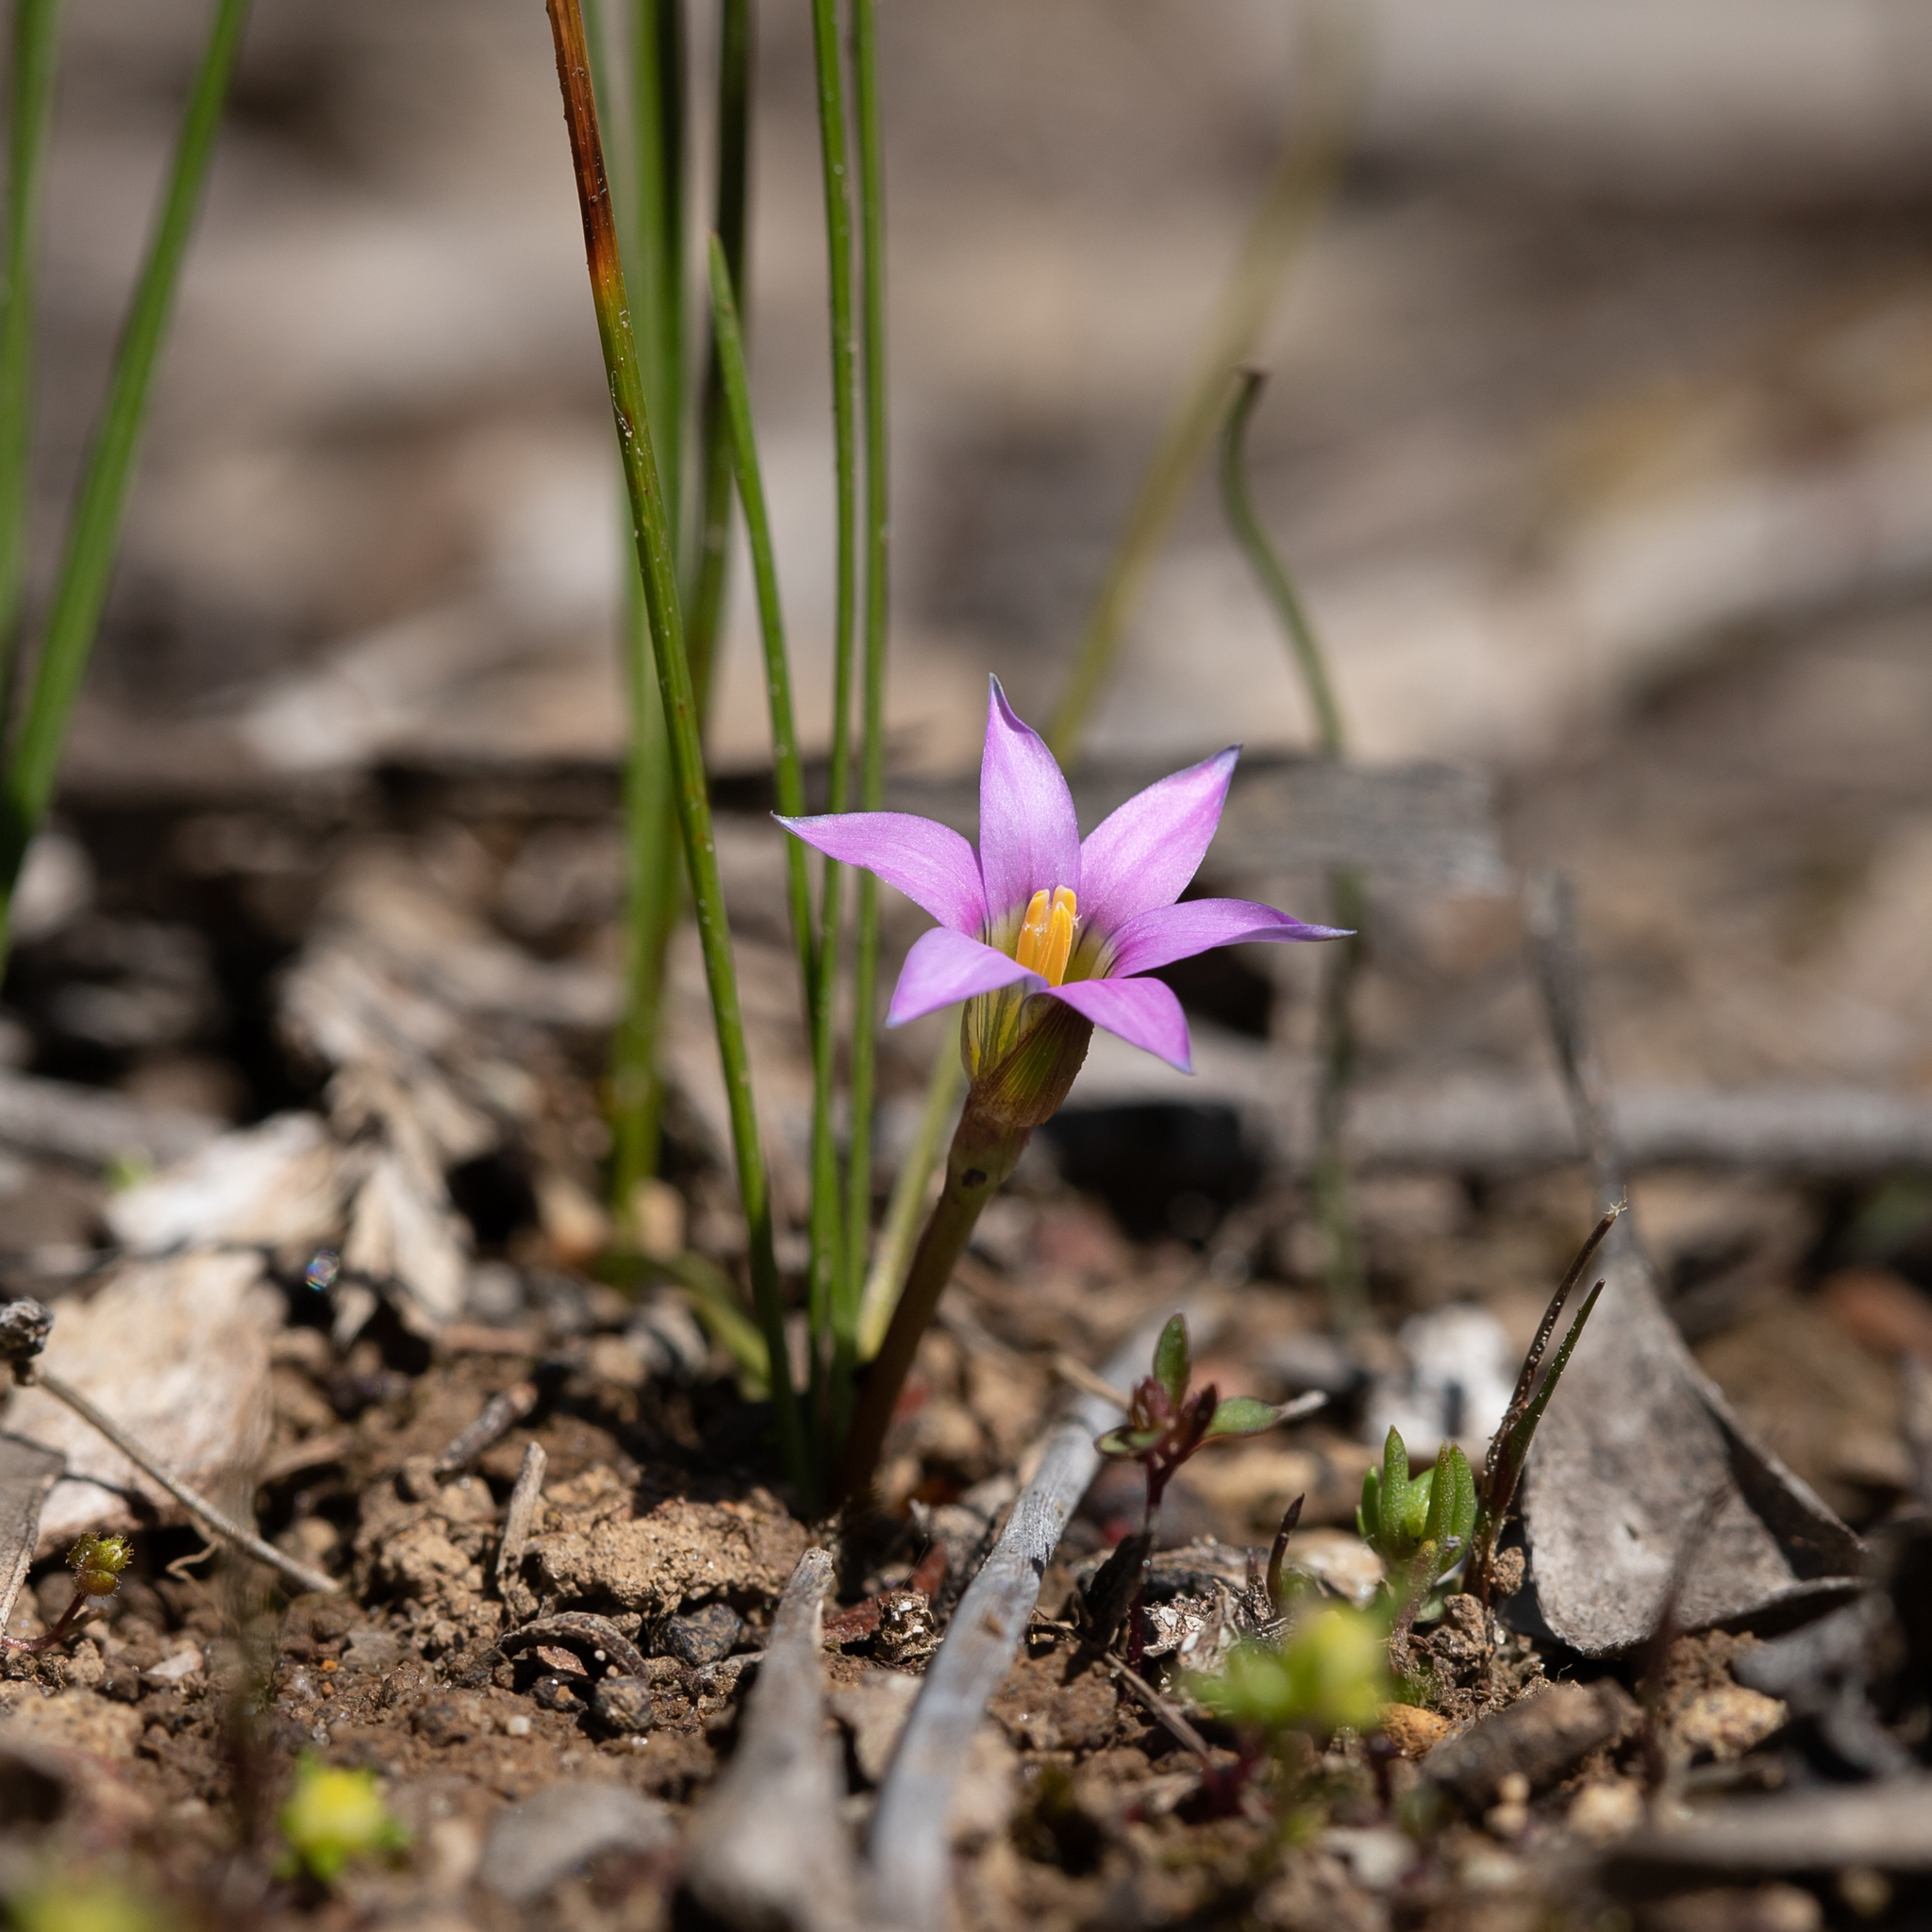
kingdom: Plantae
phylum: Tracheophyta
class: Liliopsida
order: Asparagales
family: Iridaceae
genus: Romulea
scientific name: Romulea rosea
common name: Oniongrass
